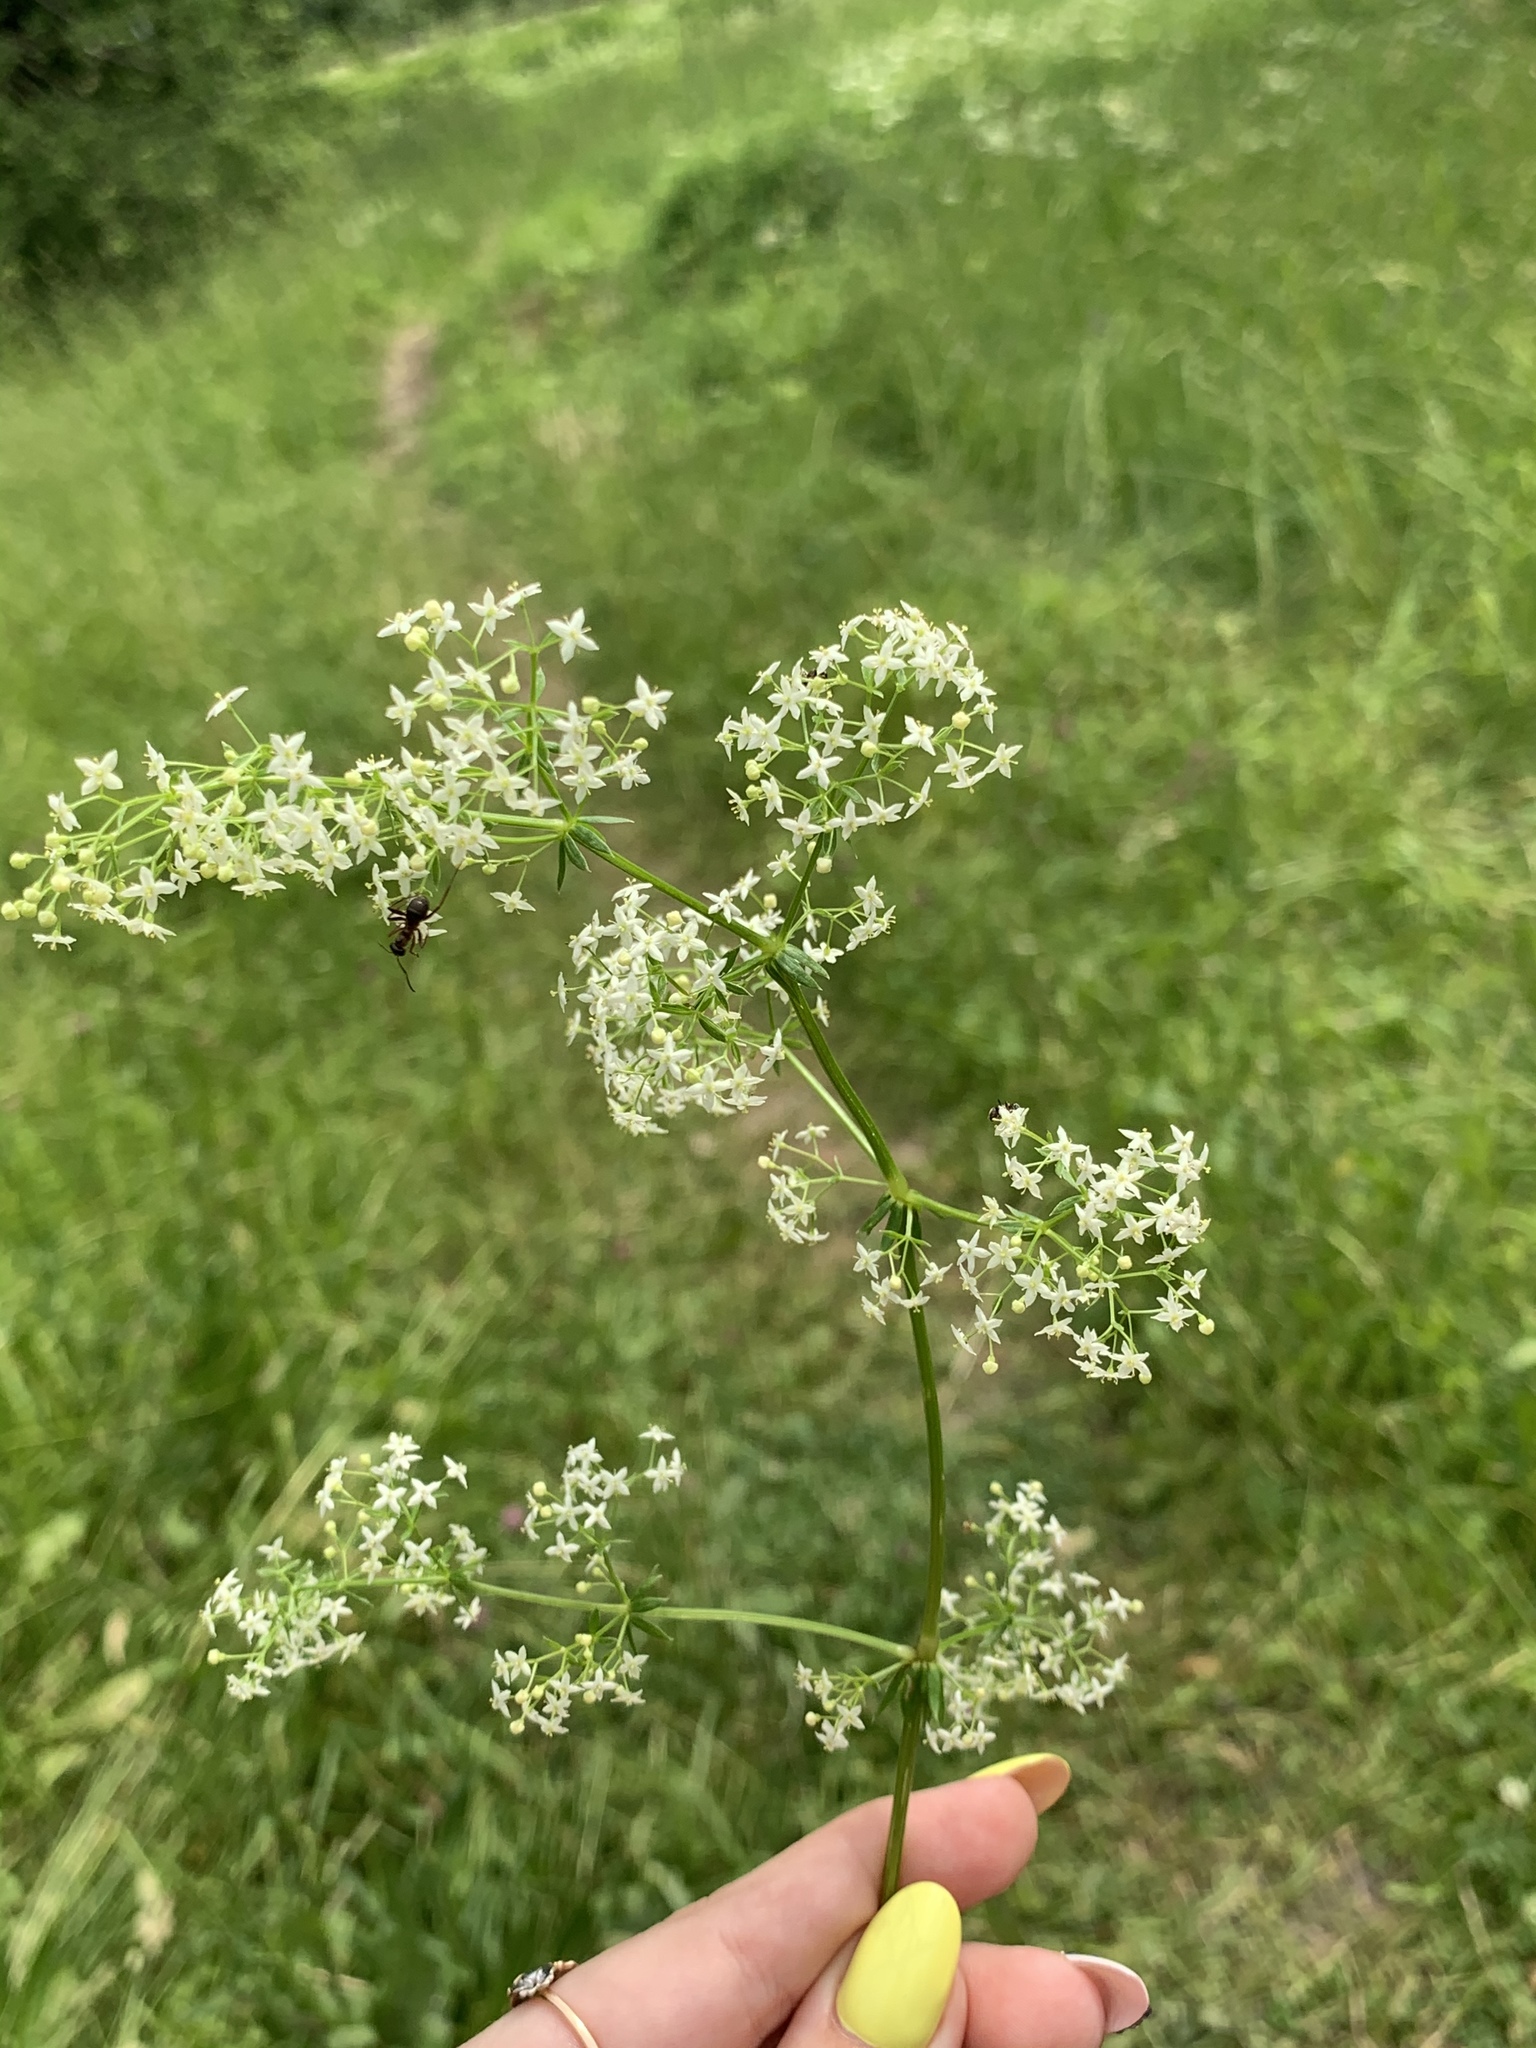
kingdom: Plantae
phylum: Tracheophyta
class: Magnoliopsida
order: Gentianales
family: Rubiaceae
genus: Galium
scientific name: Galium mollugo
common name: Hedge bedstraw
